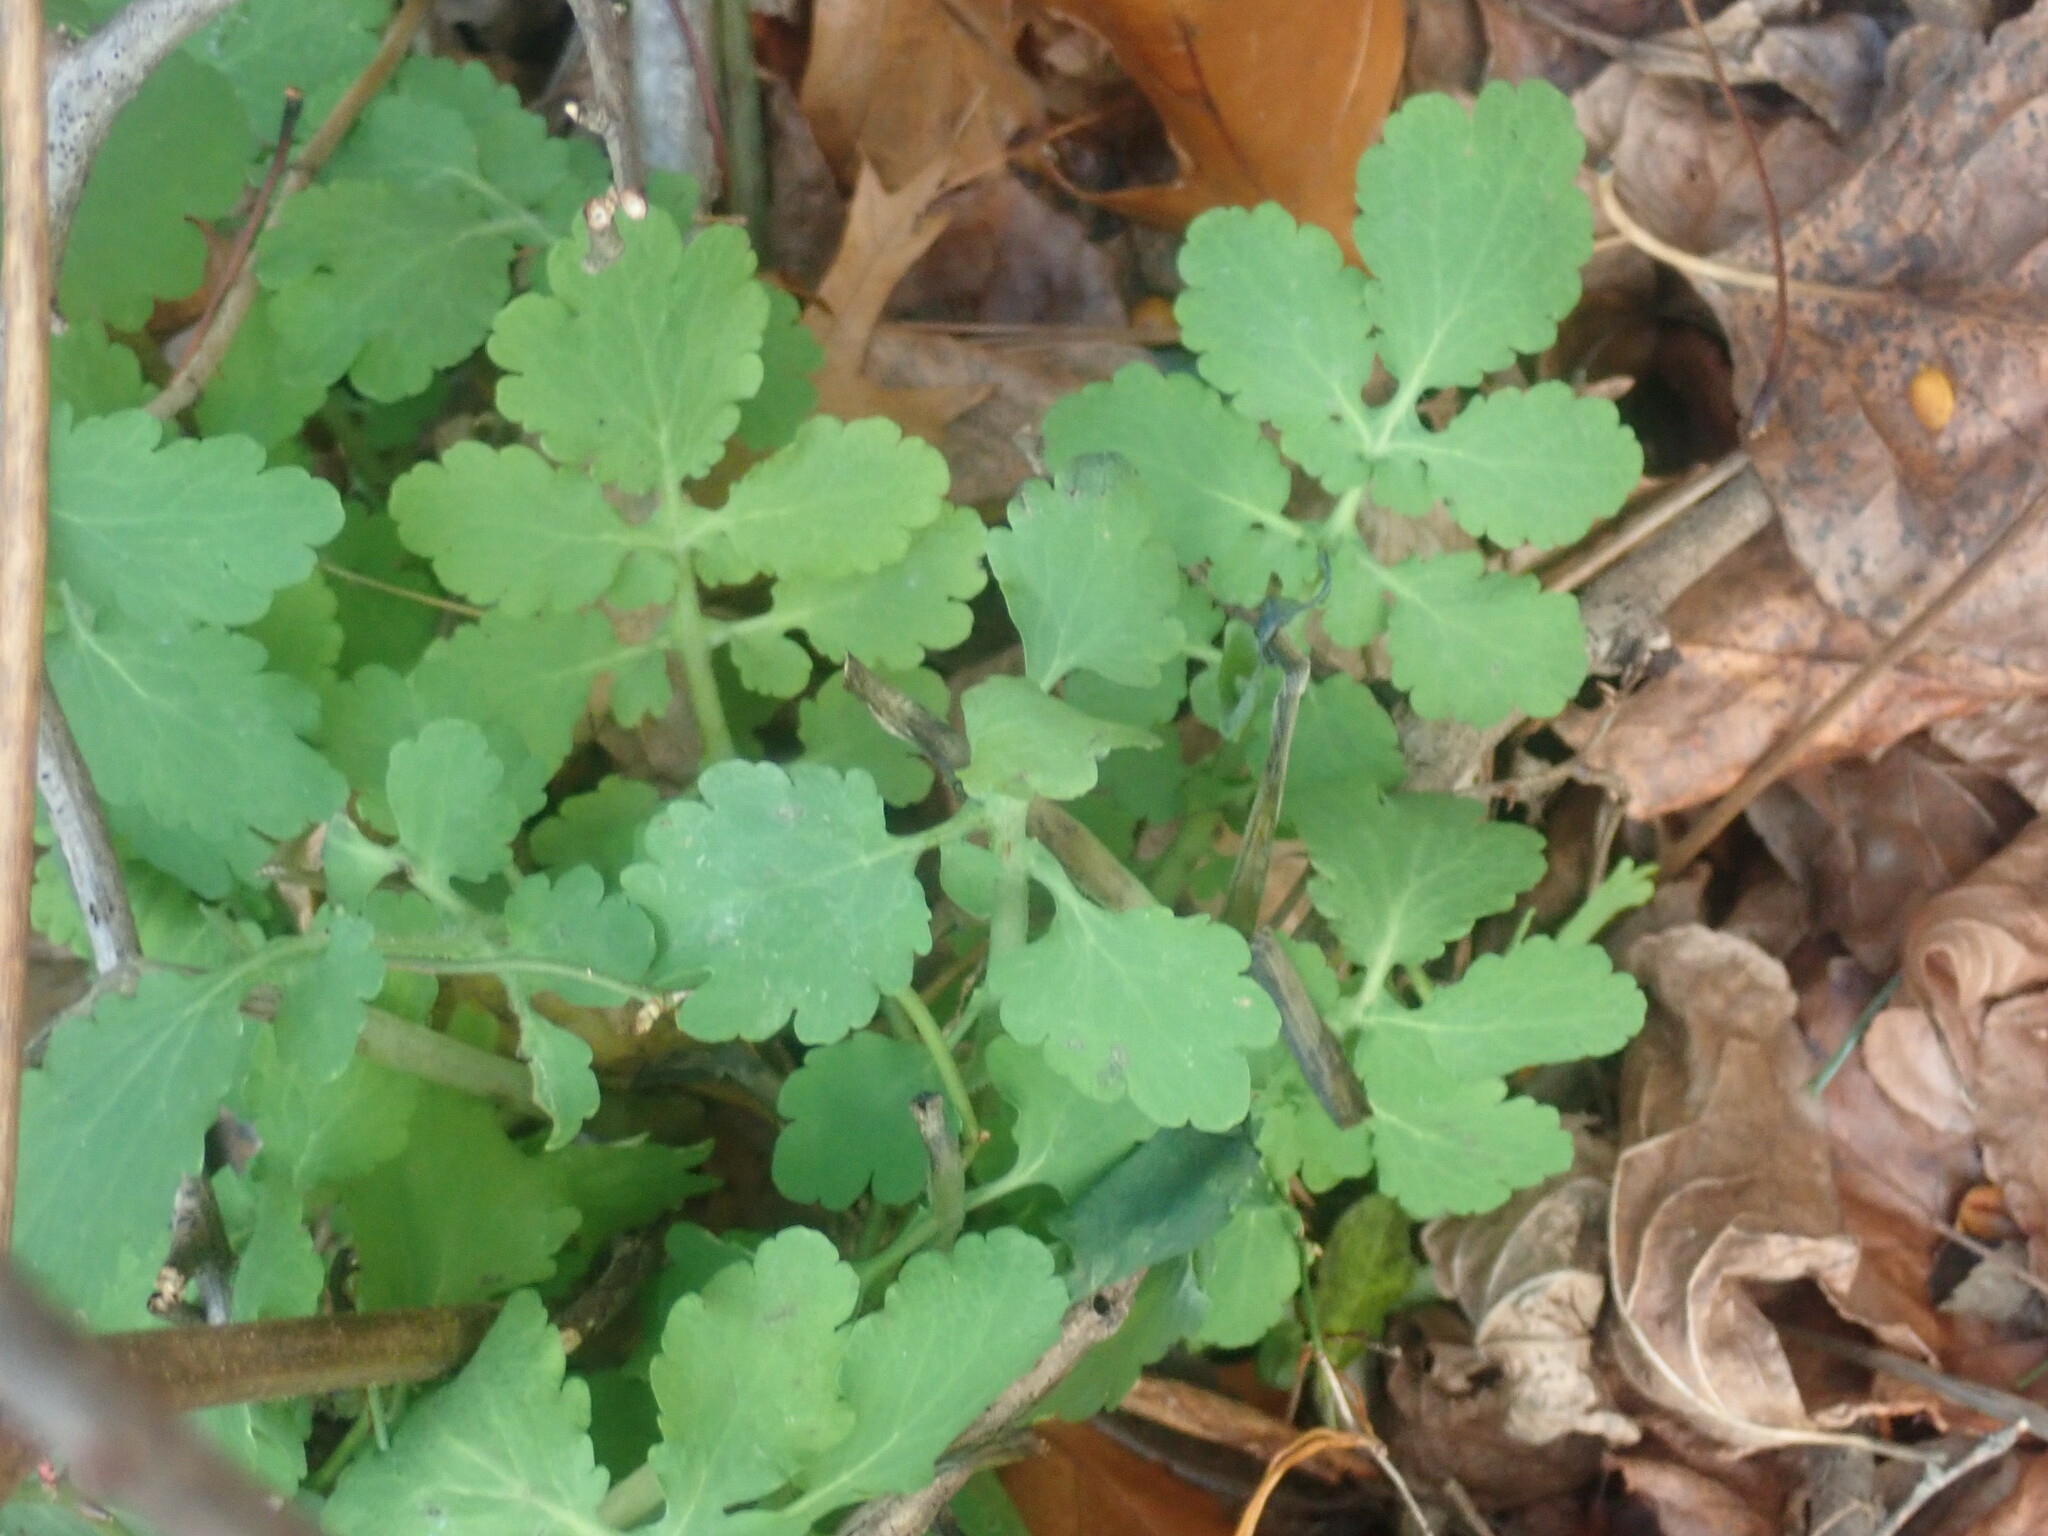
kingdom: Plantae
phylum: Tracheophyta
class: Magnoliopsida
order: Ranunculales
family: Papaveraceae
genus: Chelidonium
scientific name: Chelidonium majus
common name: Greater celandine
